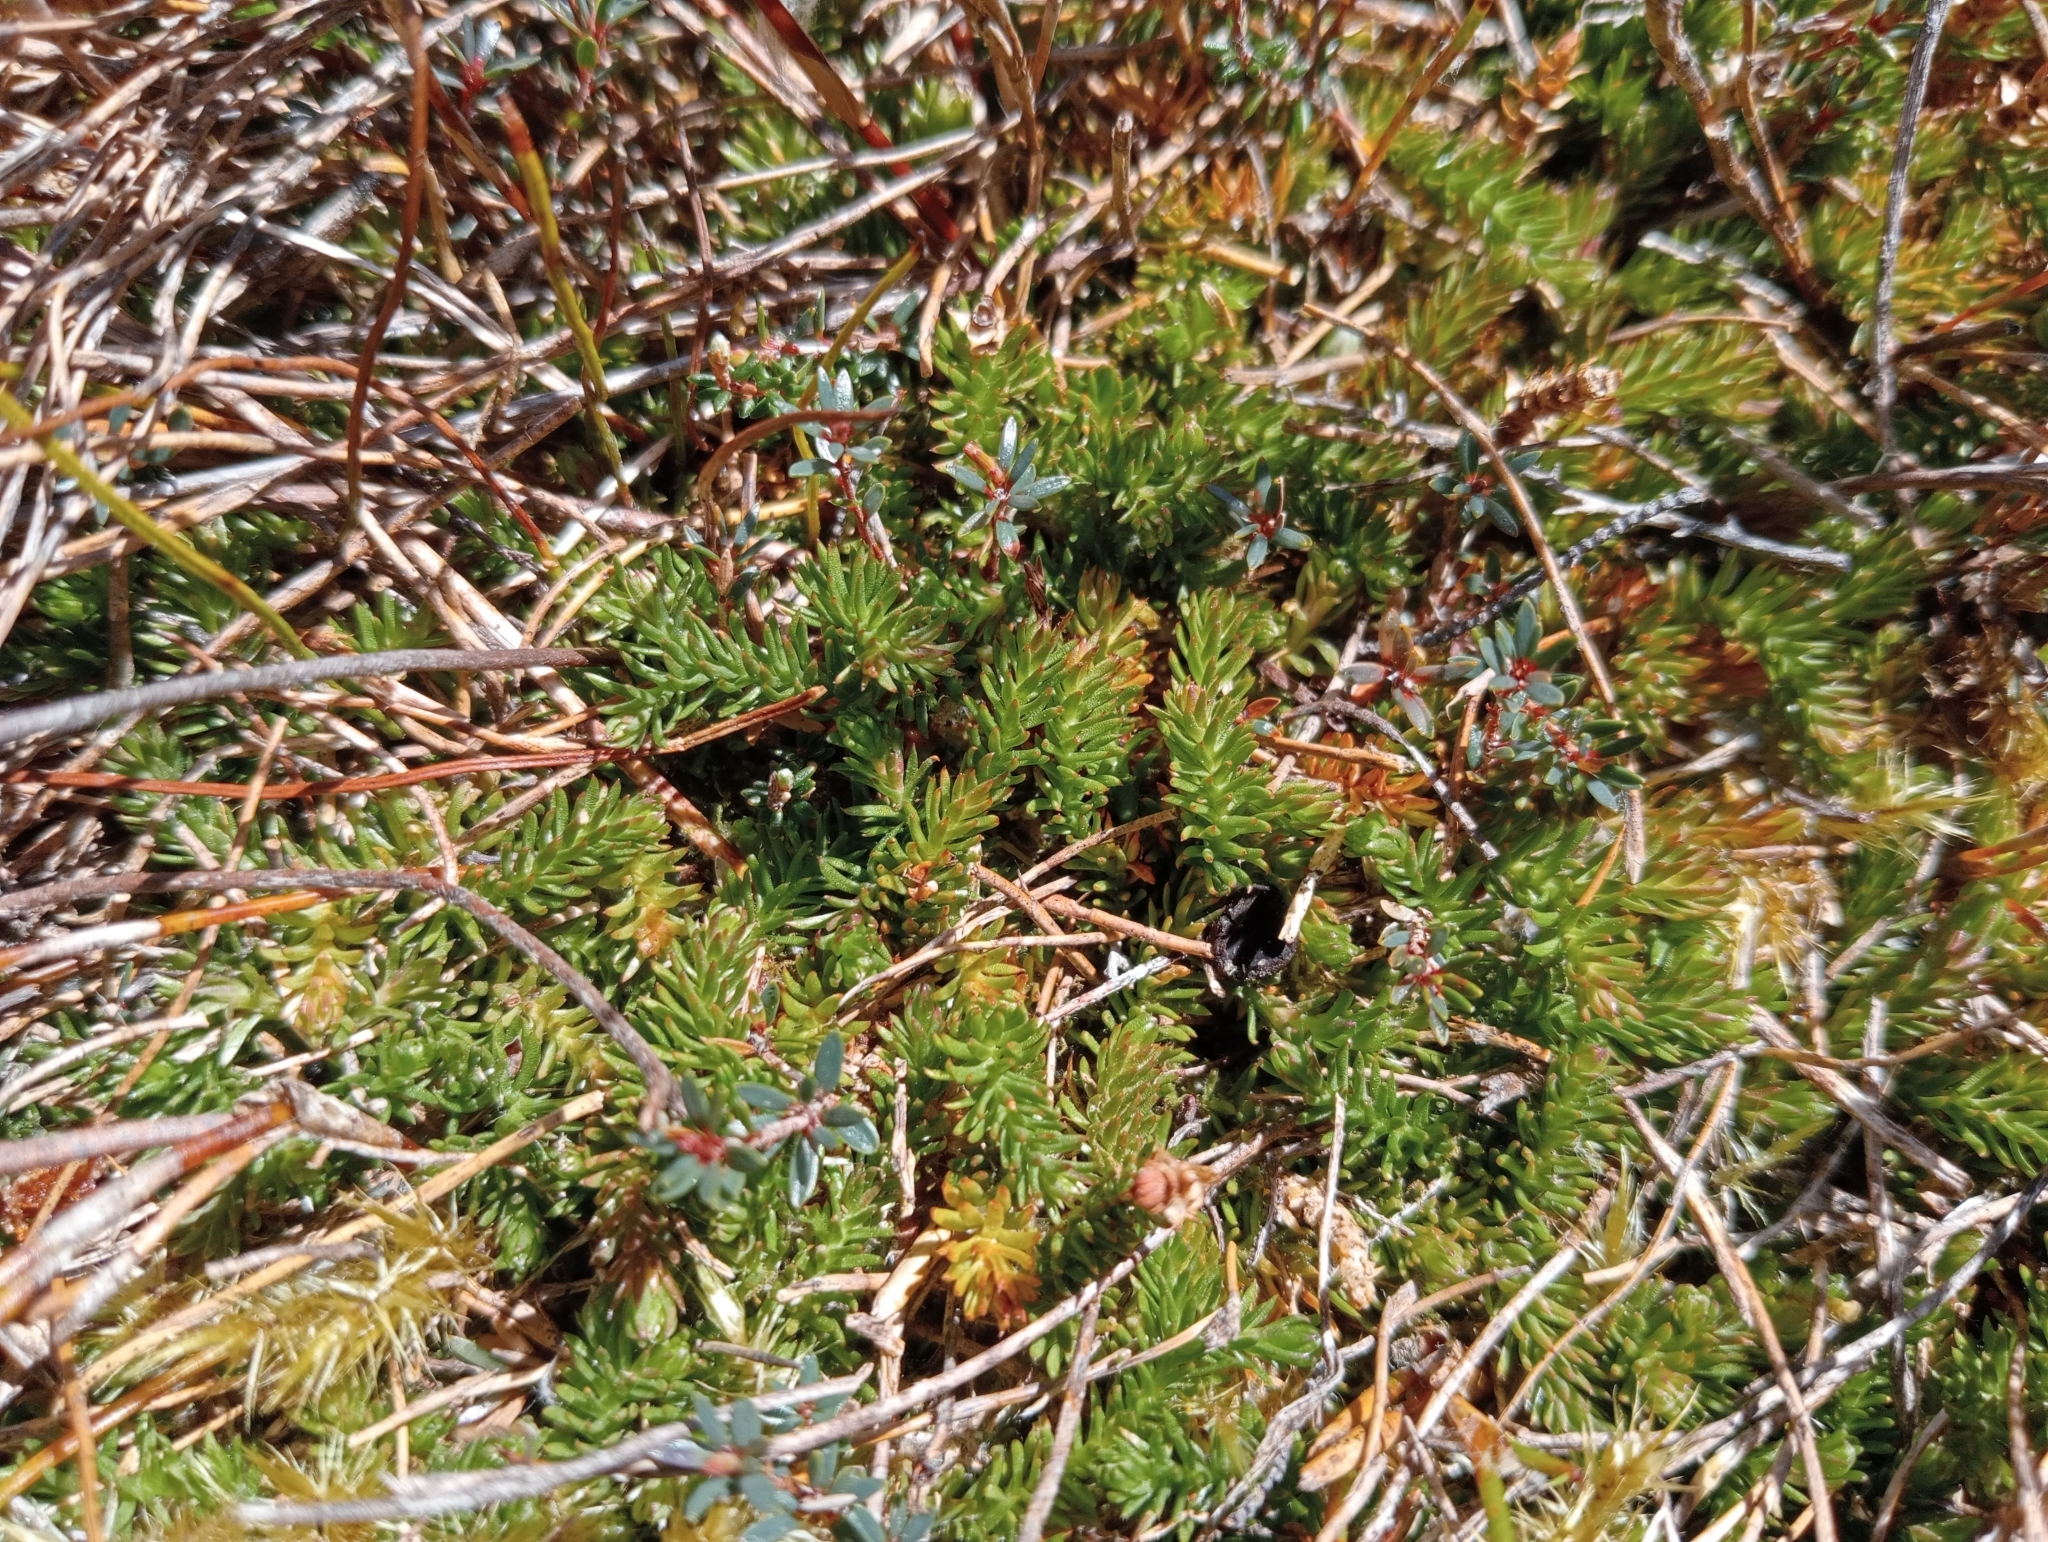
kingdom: Plantae
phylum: Tracheophyta
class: Lycopodiopsida
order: Lycopodiales
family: Lycopodiaceae
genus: Lateristachys
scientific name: Lateristachys diffusa
